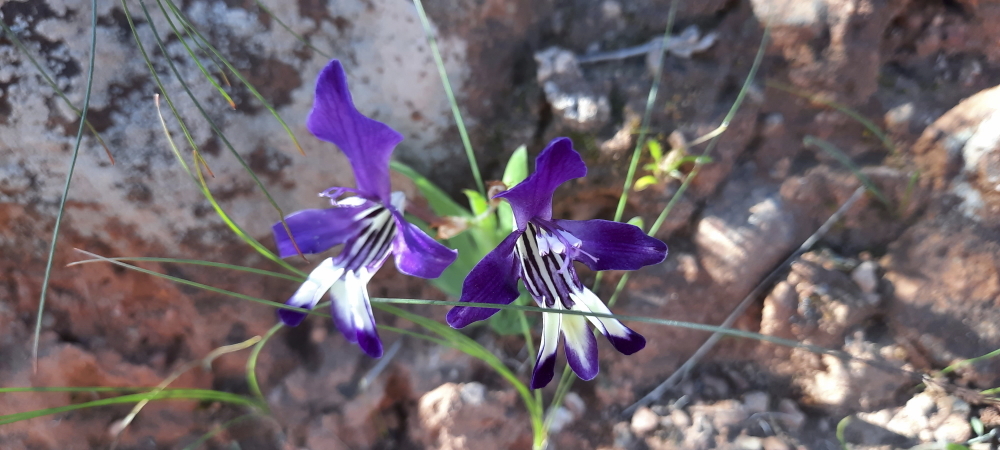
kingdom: Plantae
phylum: Tracheophyta
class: Liliopsida
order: Asparagales
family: Iridaceae
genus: Sparaxis
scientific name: Sparaxis metelerkampiae
